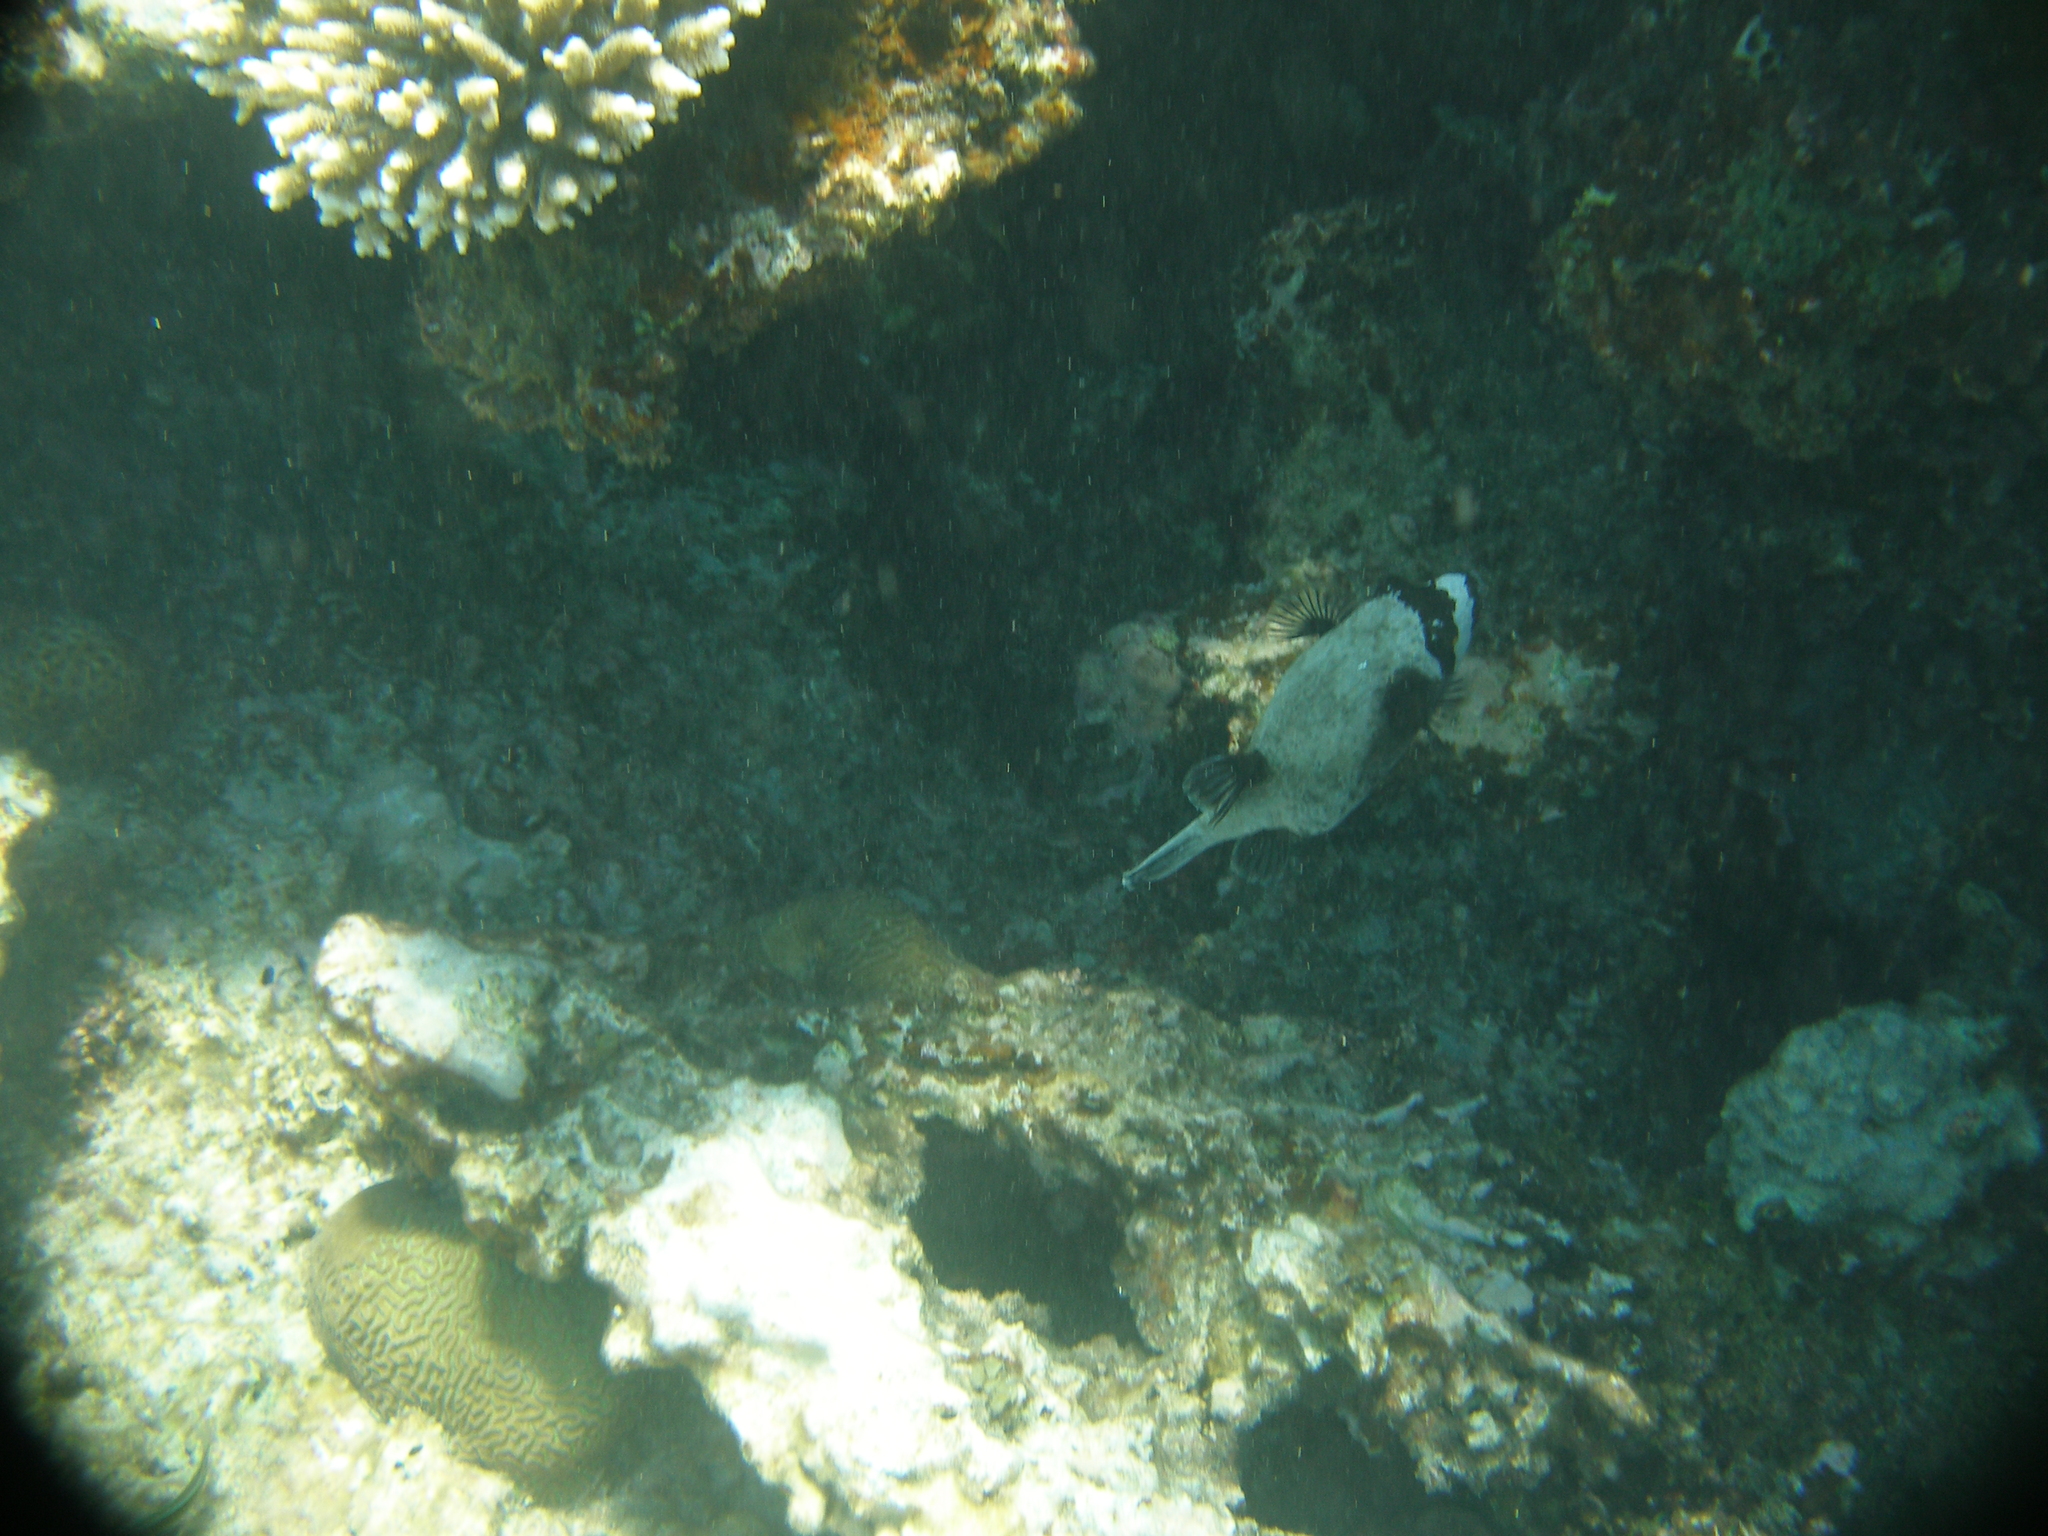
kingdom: Animalia
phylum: Chordata
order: Tetraodontiformes
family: Tetraodontidae
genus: Arothron
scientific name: Arothron diadematus
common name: Masked puffer
